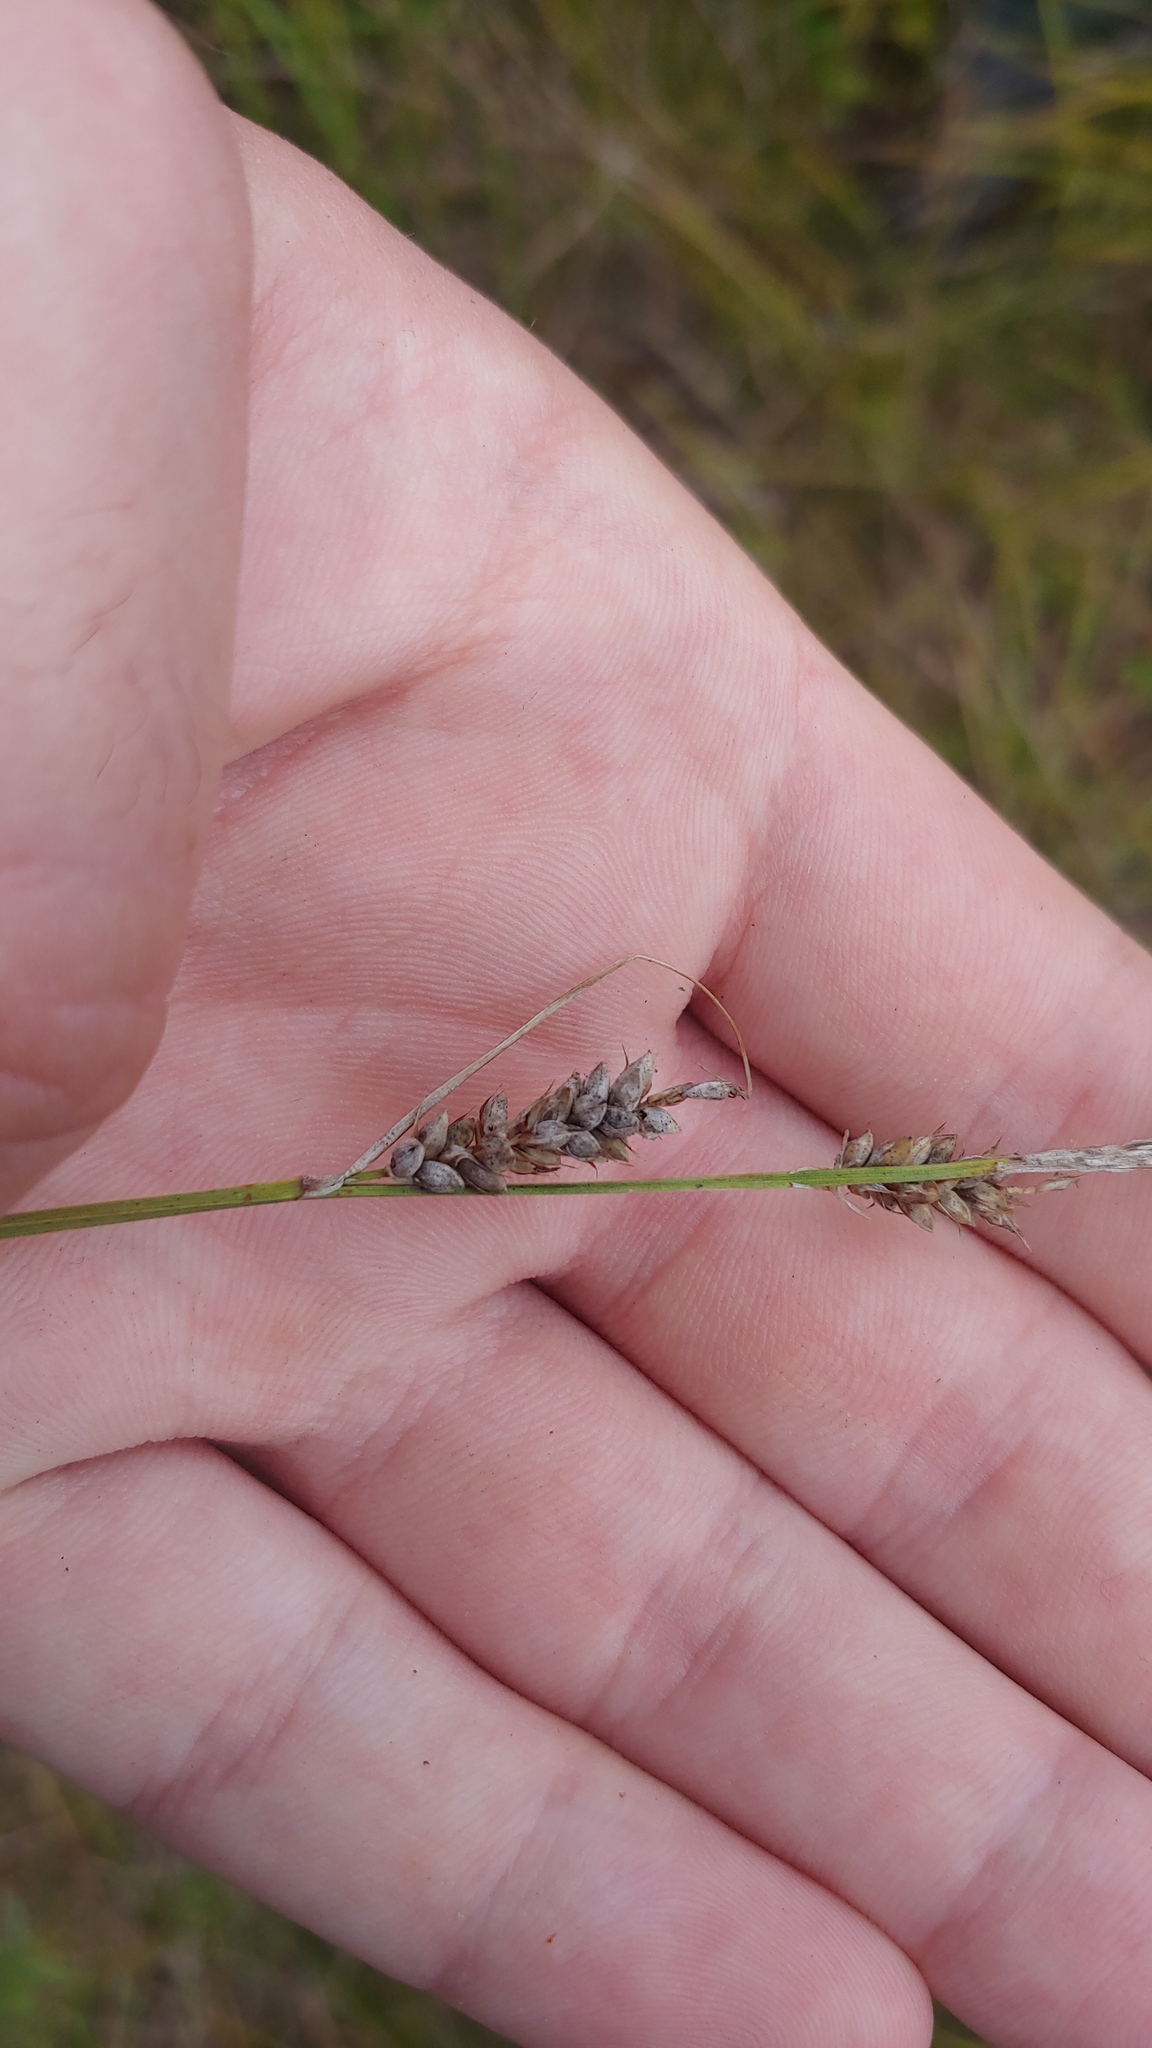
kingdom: Plantae
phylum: Tracheophyta
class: Liliopsida
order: Poales
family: Cyperaceae
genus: Carex
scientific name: Carex buxbaumii
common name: Club sedge
